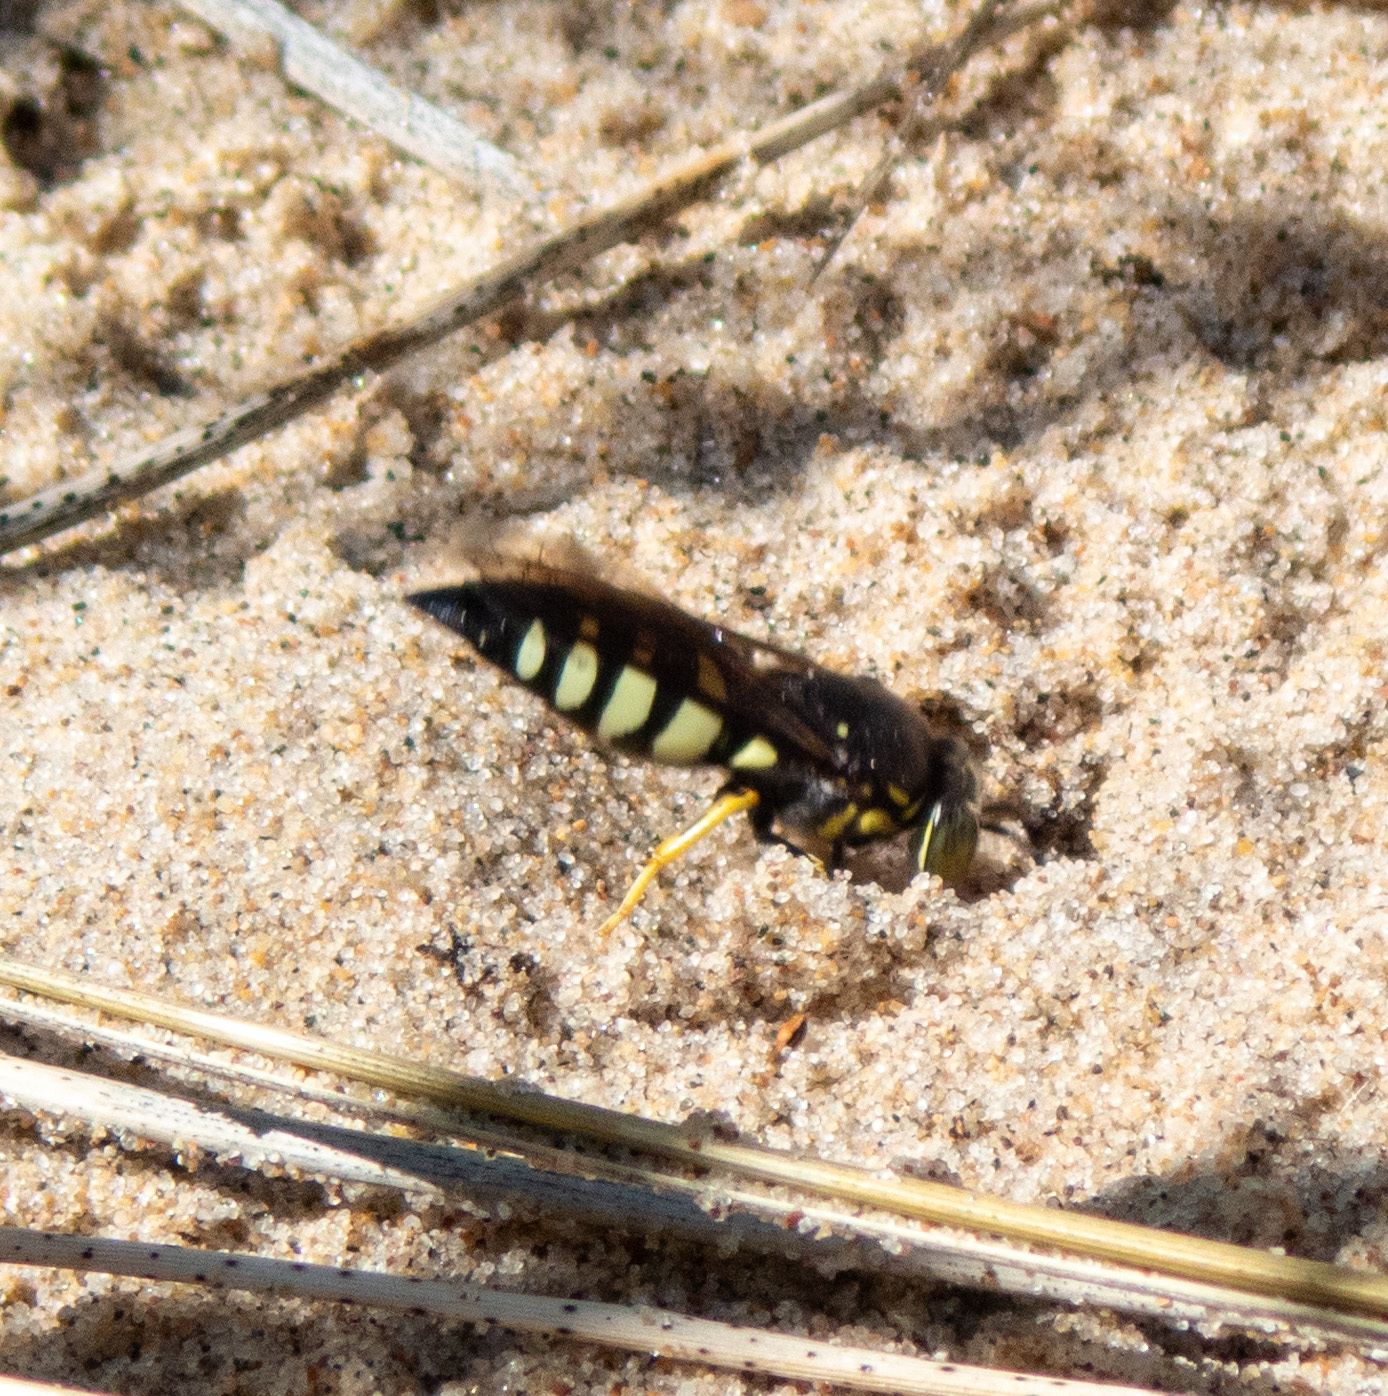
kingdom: Animalia
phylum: Arthropoda
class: Insecta
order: Hymenoptera
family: Crabronidae
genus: Bicyrtes
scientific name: Bicyrtes quadrifasciatus
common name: Four-banded stink bug hunter wasp
